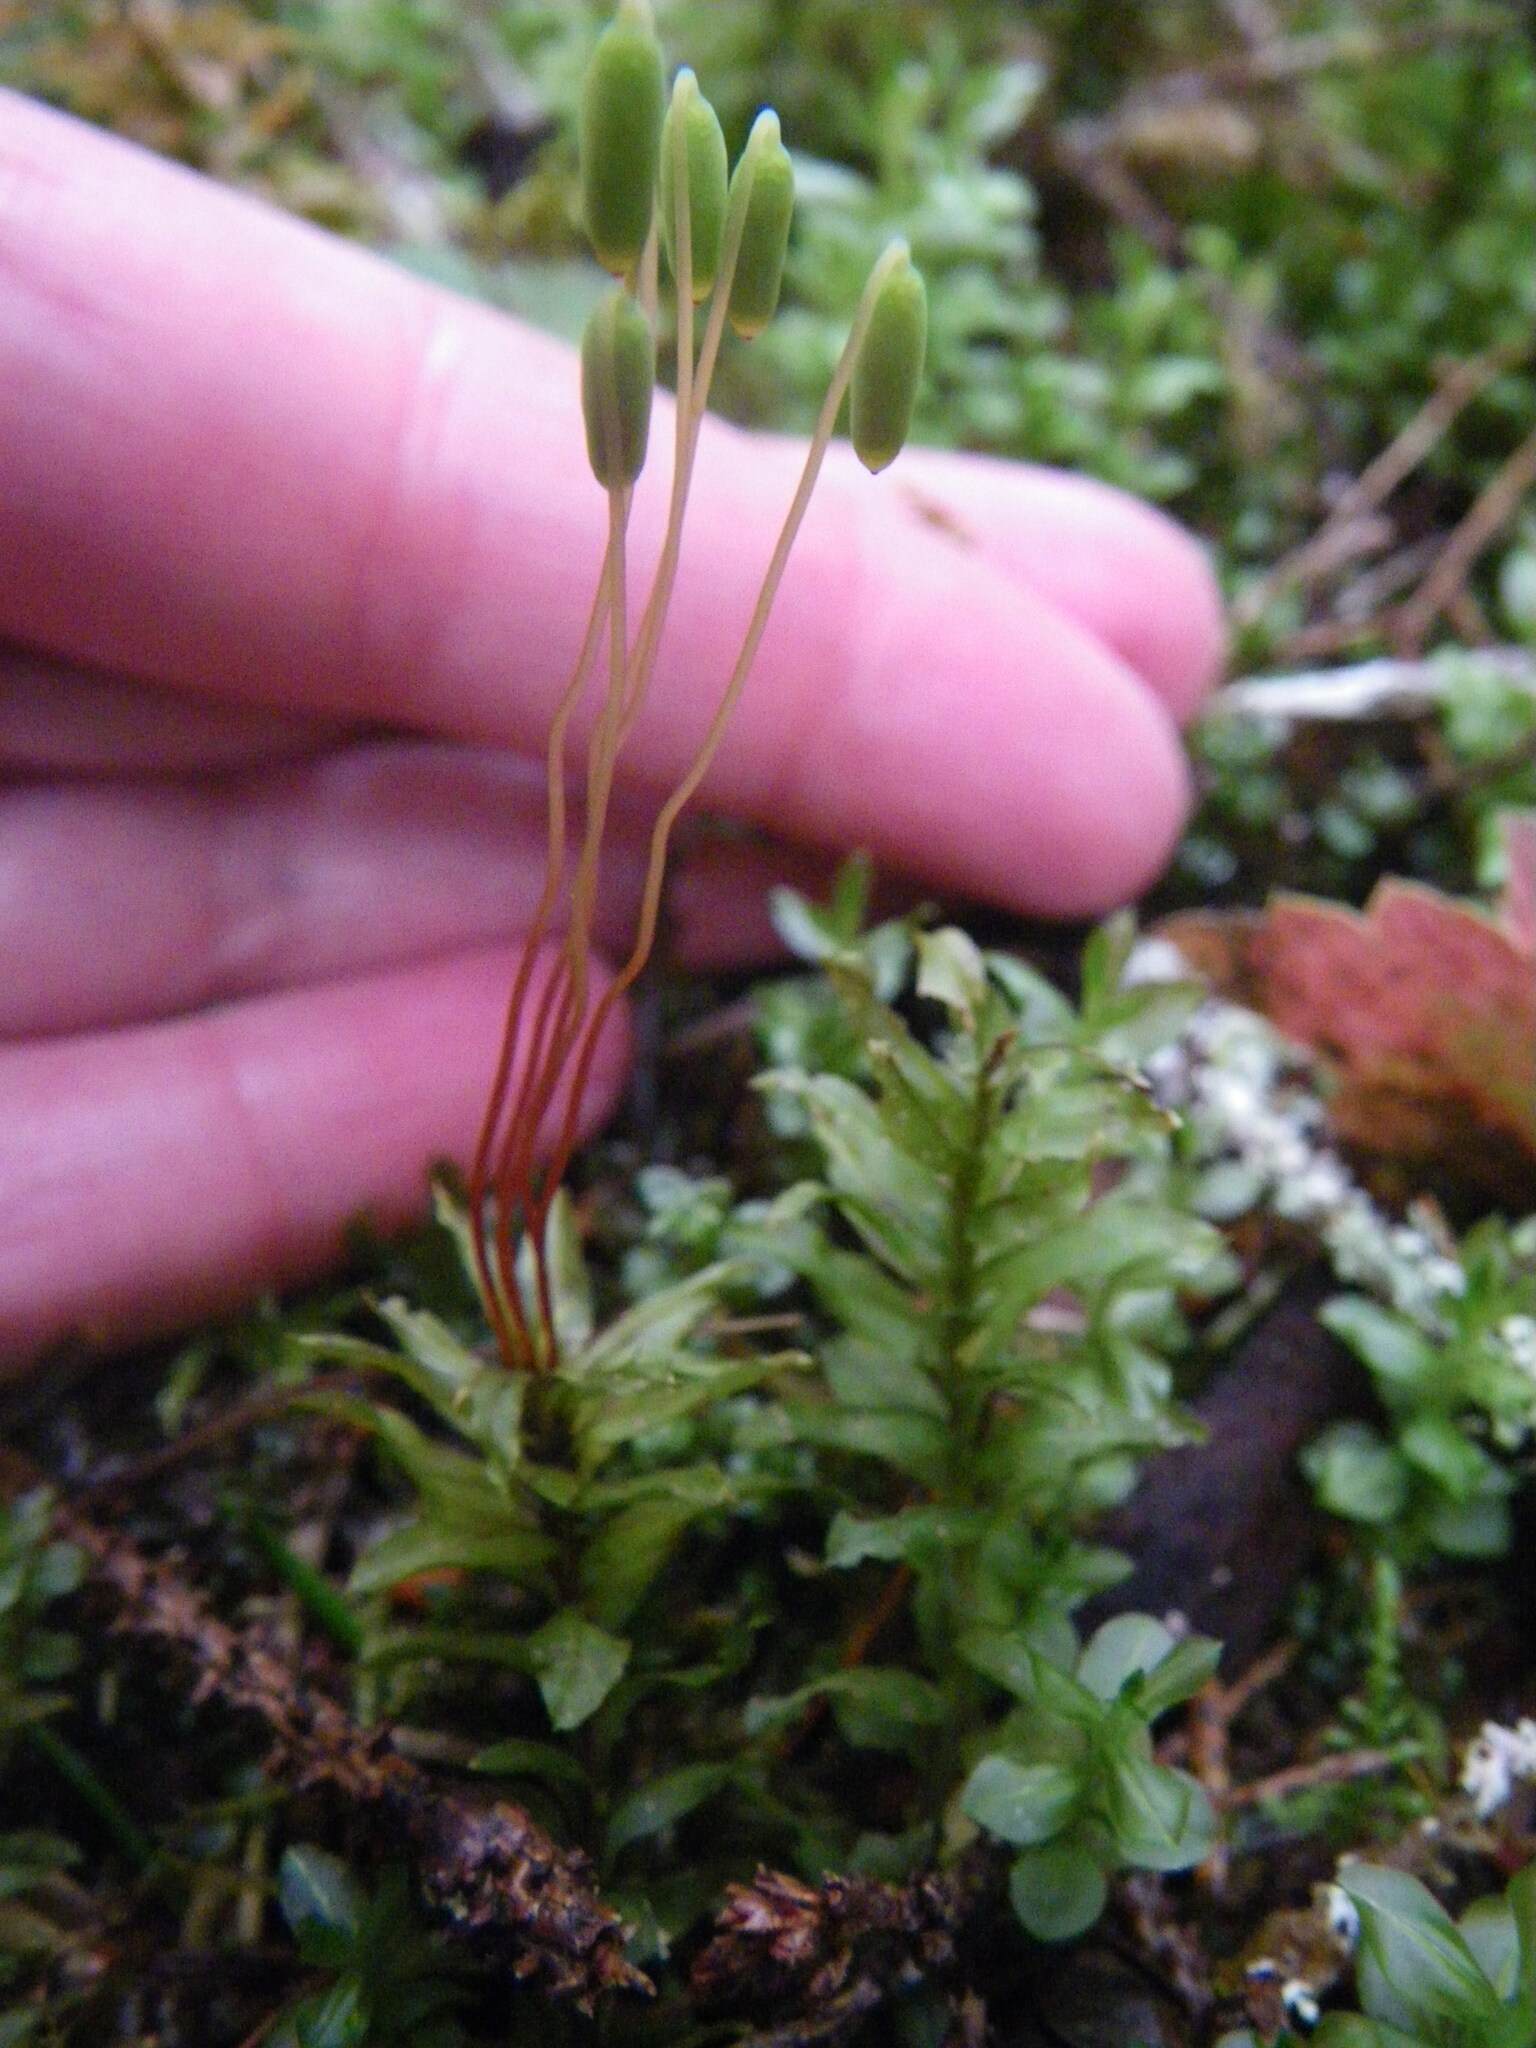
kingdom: Plantae
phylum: Bryophyta
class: Bryopsida
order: Bryales
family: Mniaceae
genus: Plagiomnium
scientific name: Plagiomnium insigne
